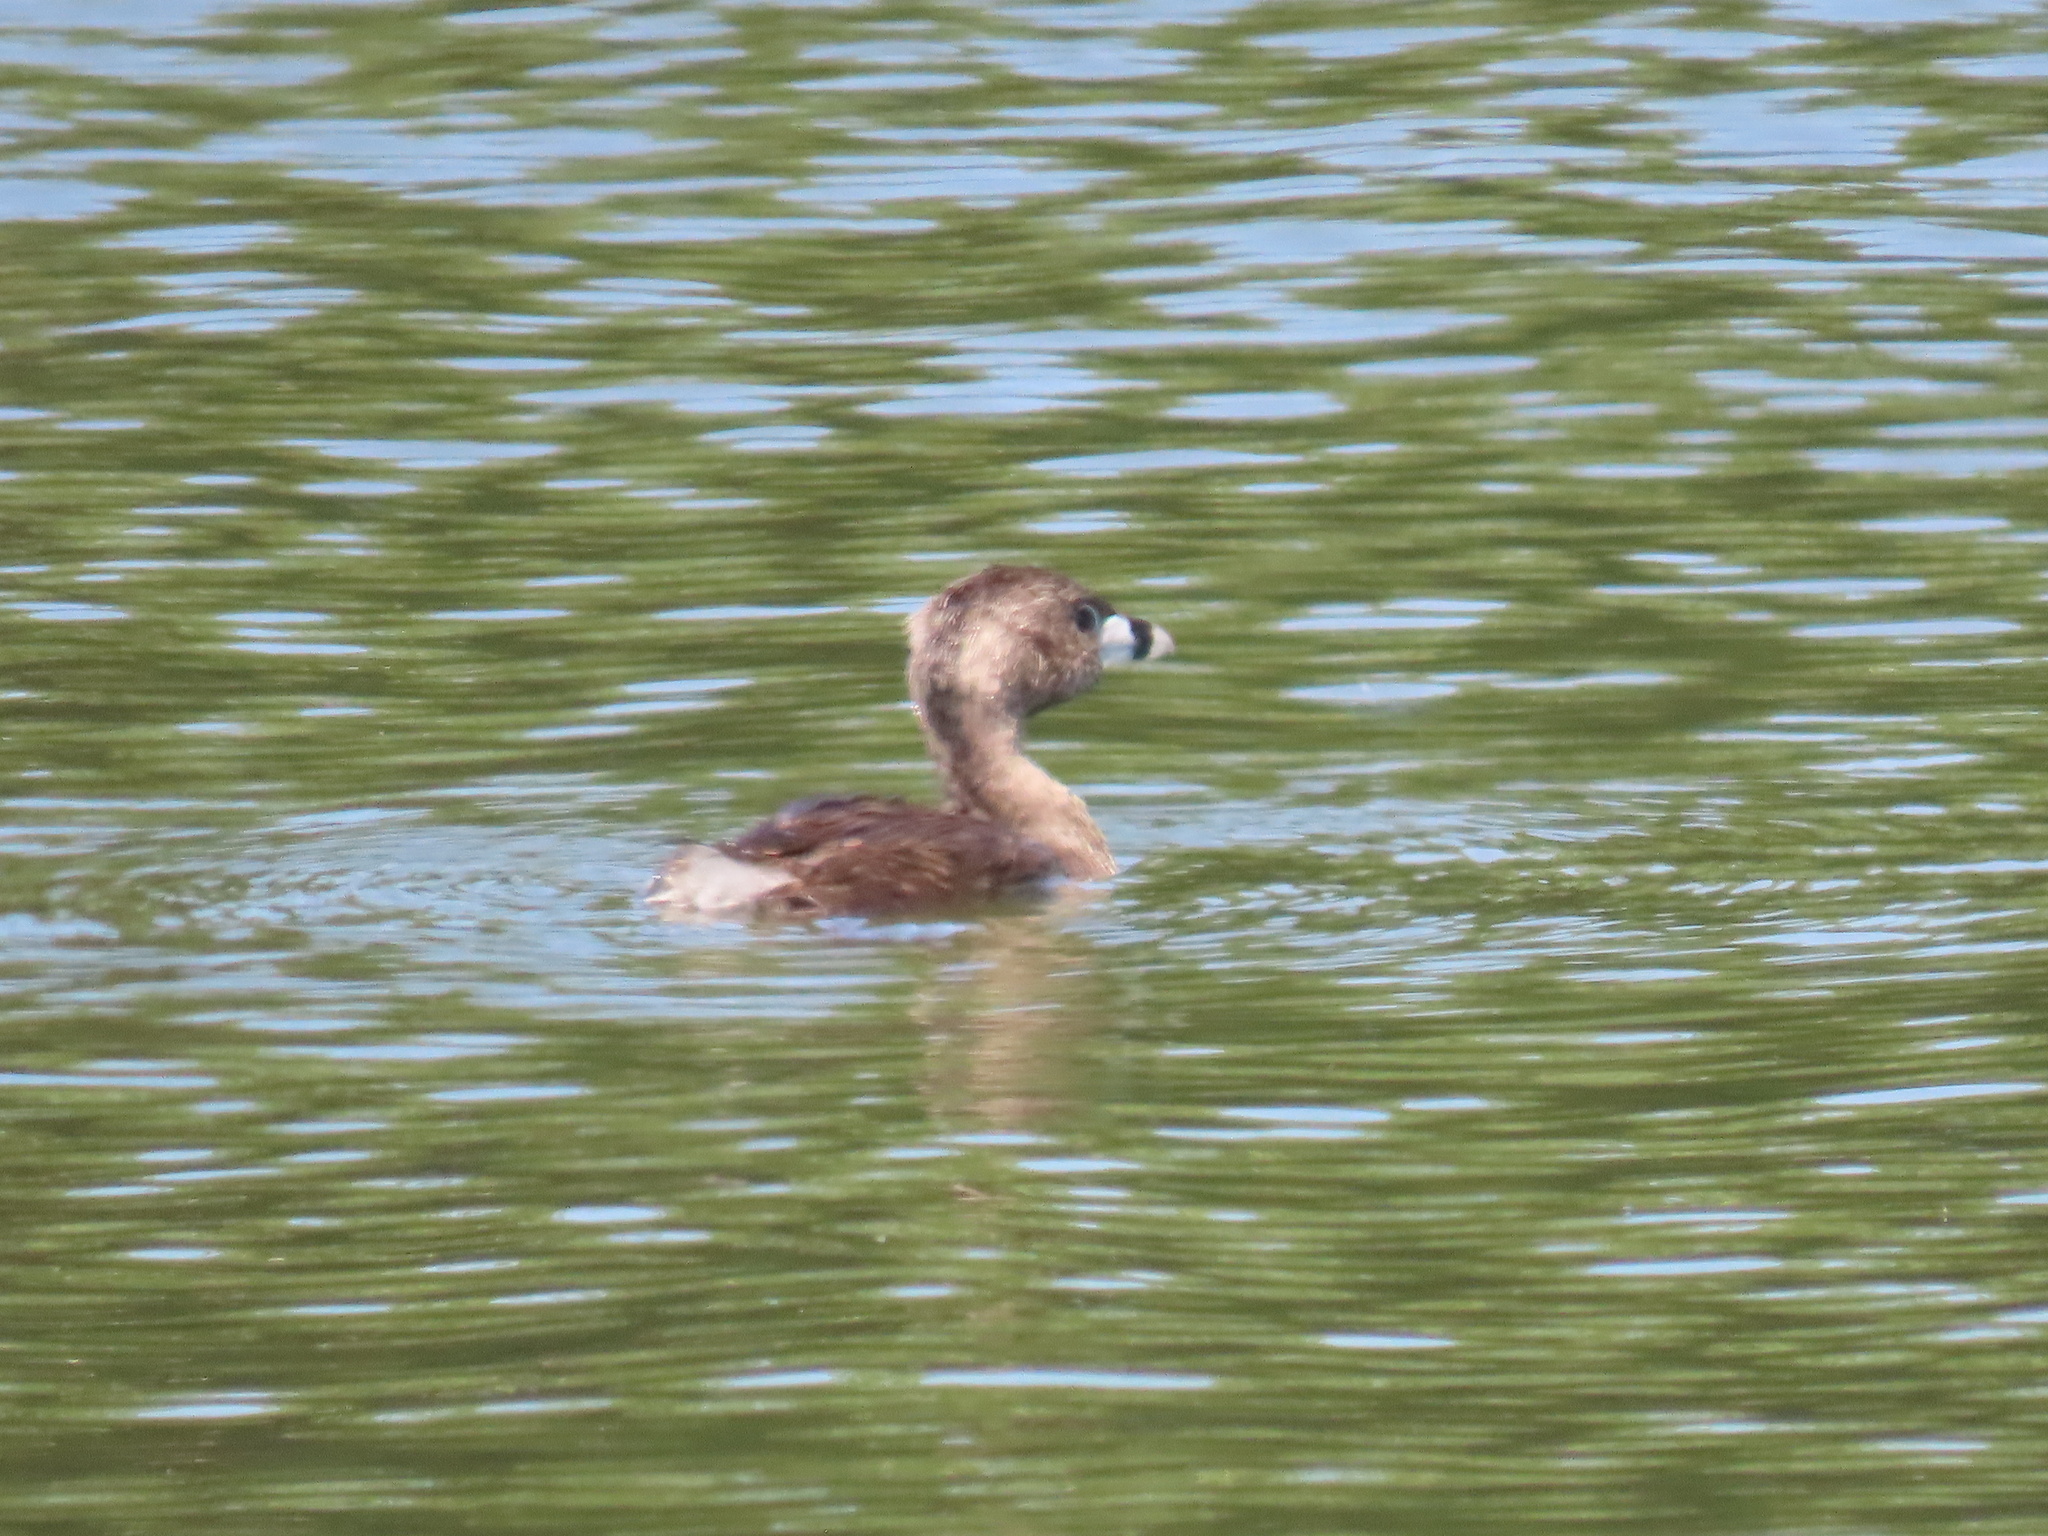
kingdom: Animalia
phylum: Chordata
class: Aves
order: Podicipediformes
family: Podicipedidae
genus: Podilymbus
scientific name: Podilymbus podiceps
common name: Pied-billed grebe
